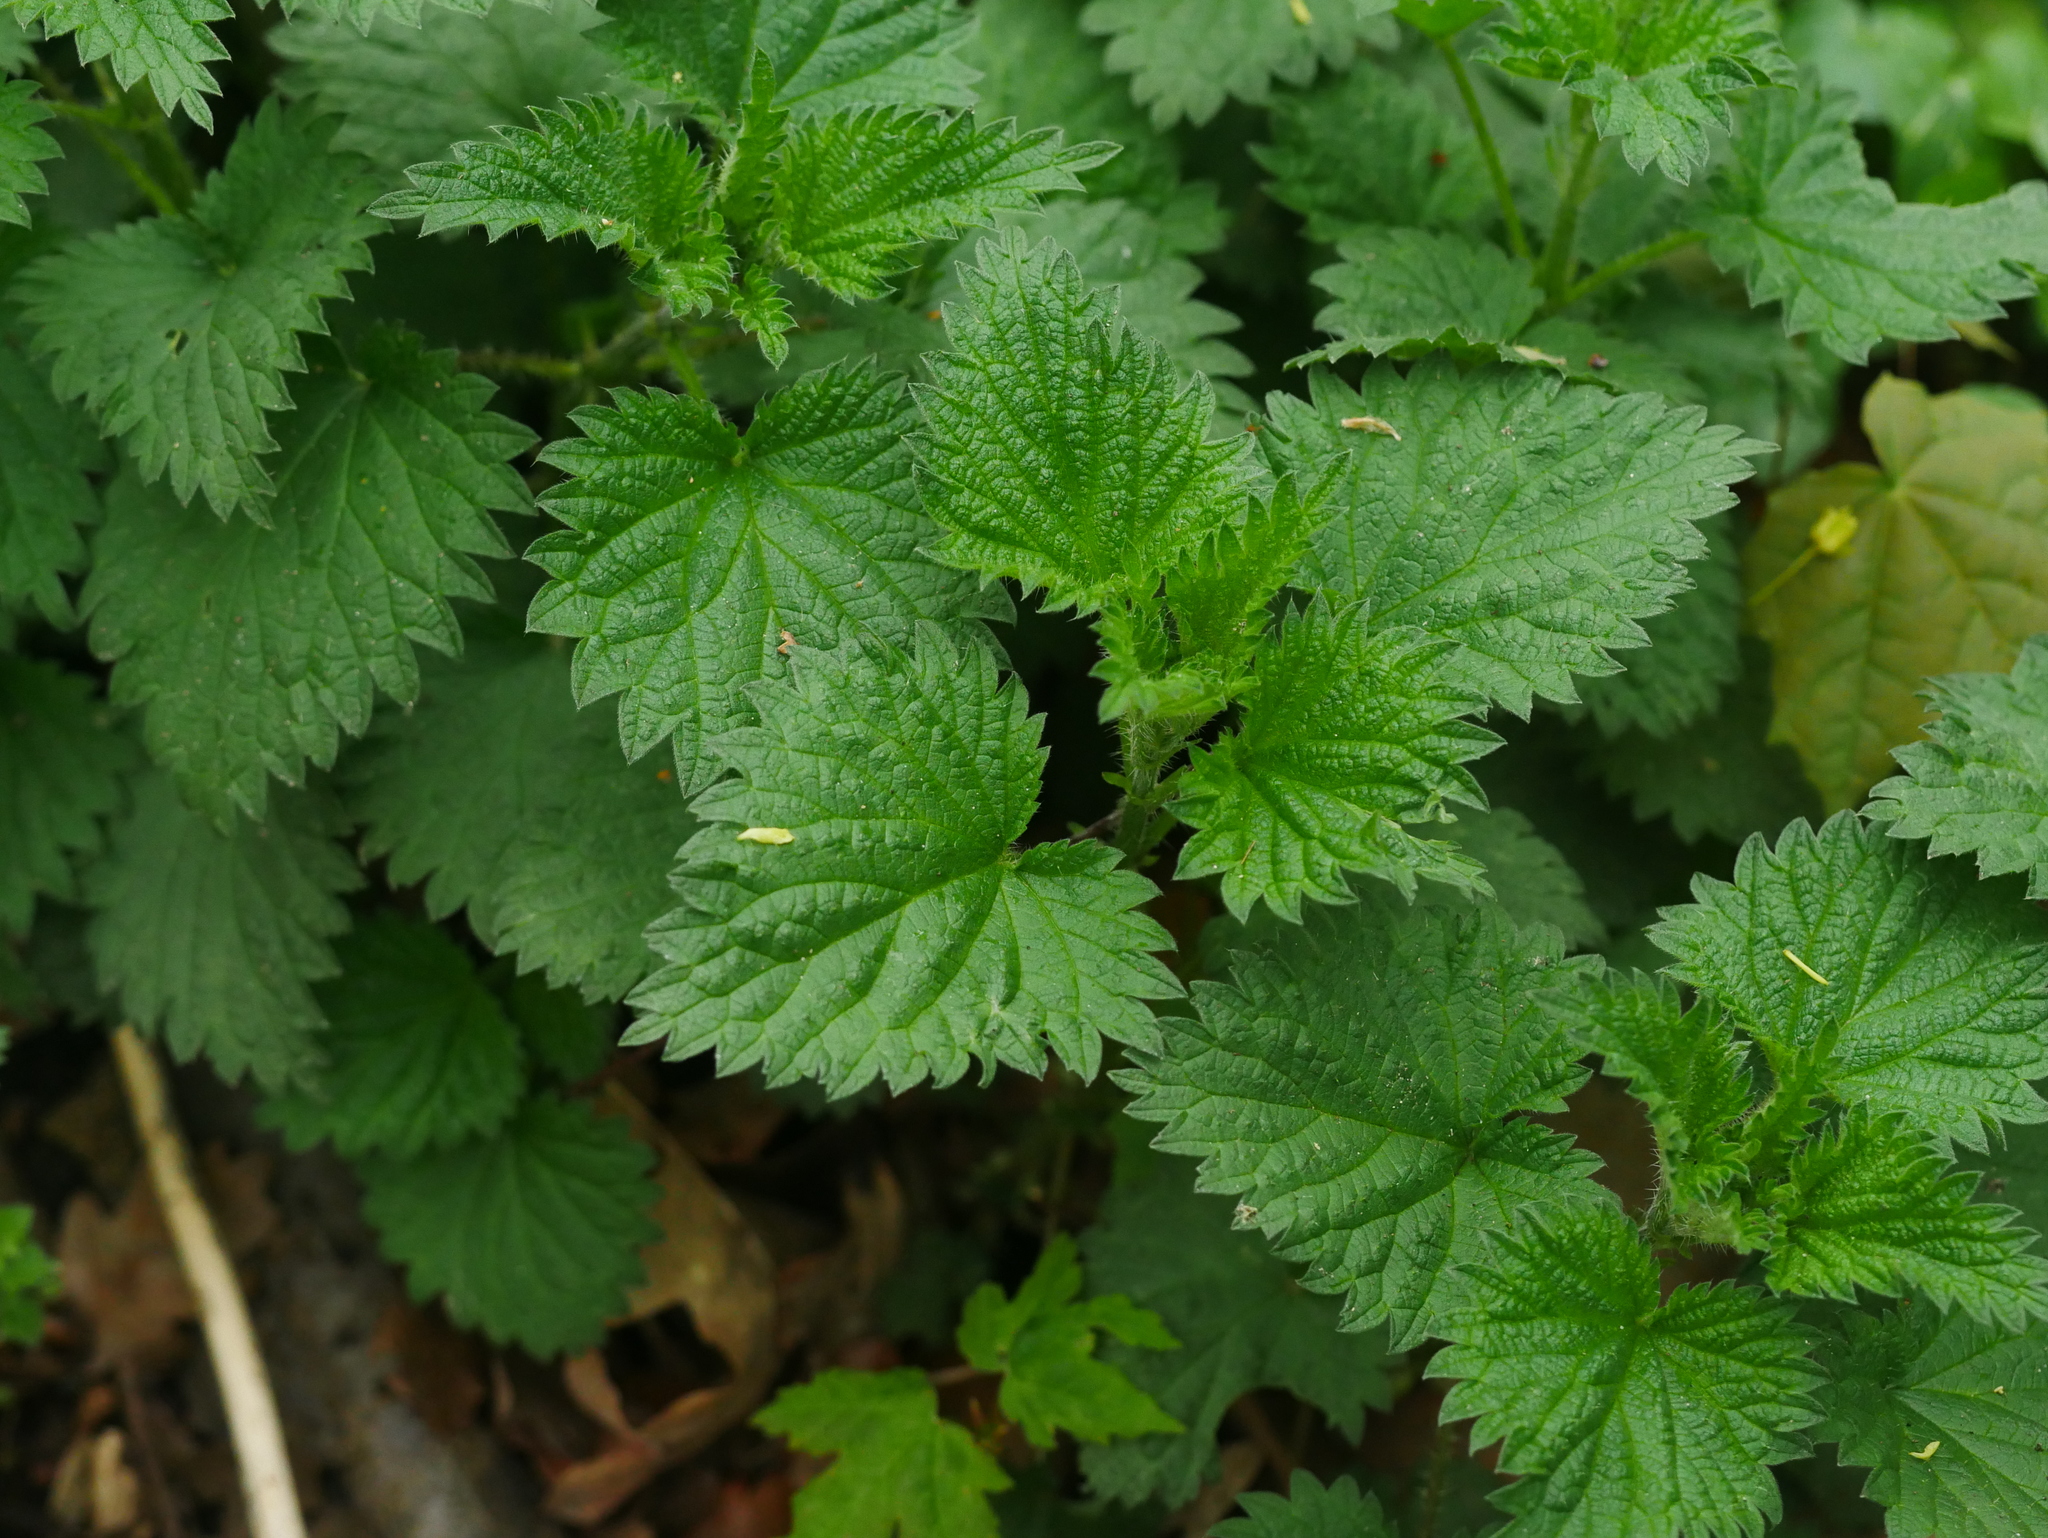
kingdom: Plantae
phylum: Tracheophyta
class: Magnoliopsida
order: Rosales
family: Urticaceae
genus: Urtica
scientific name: Urtica dioica
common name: Common nettle
